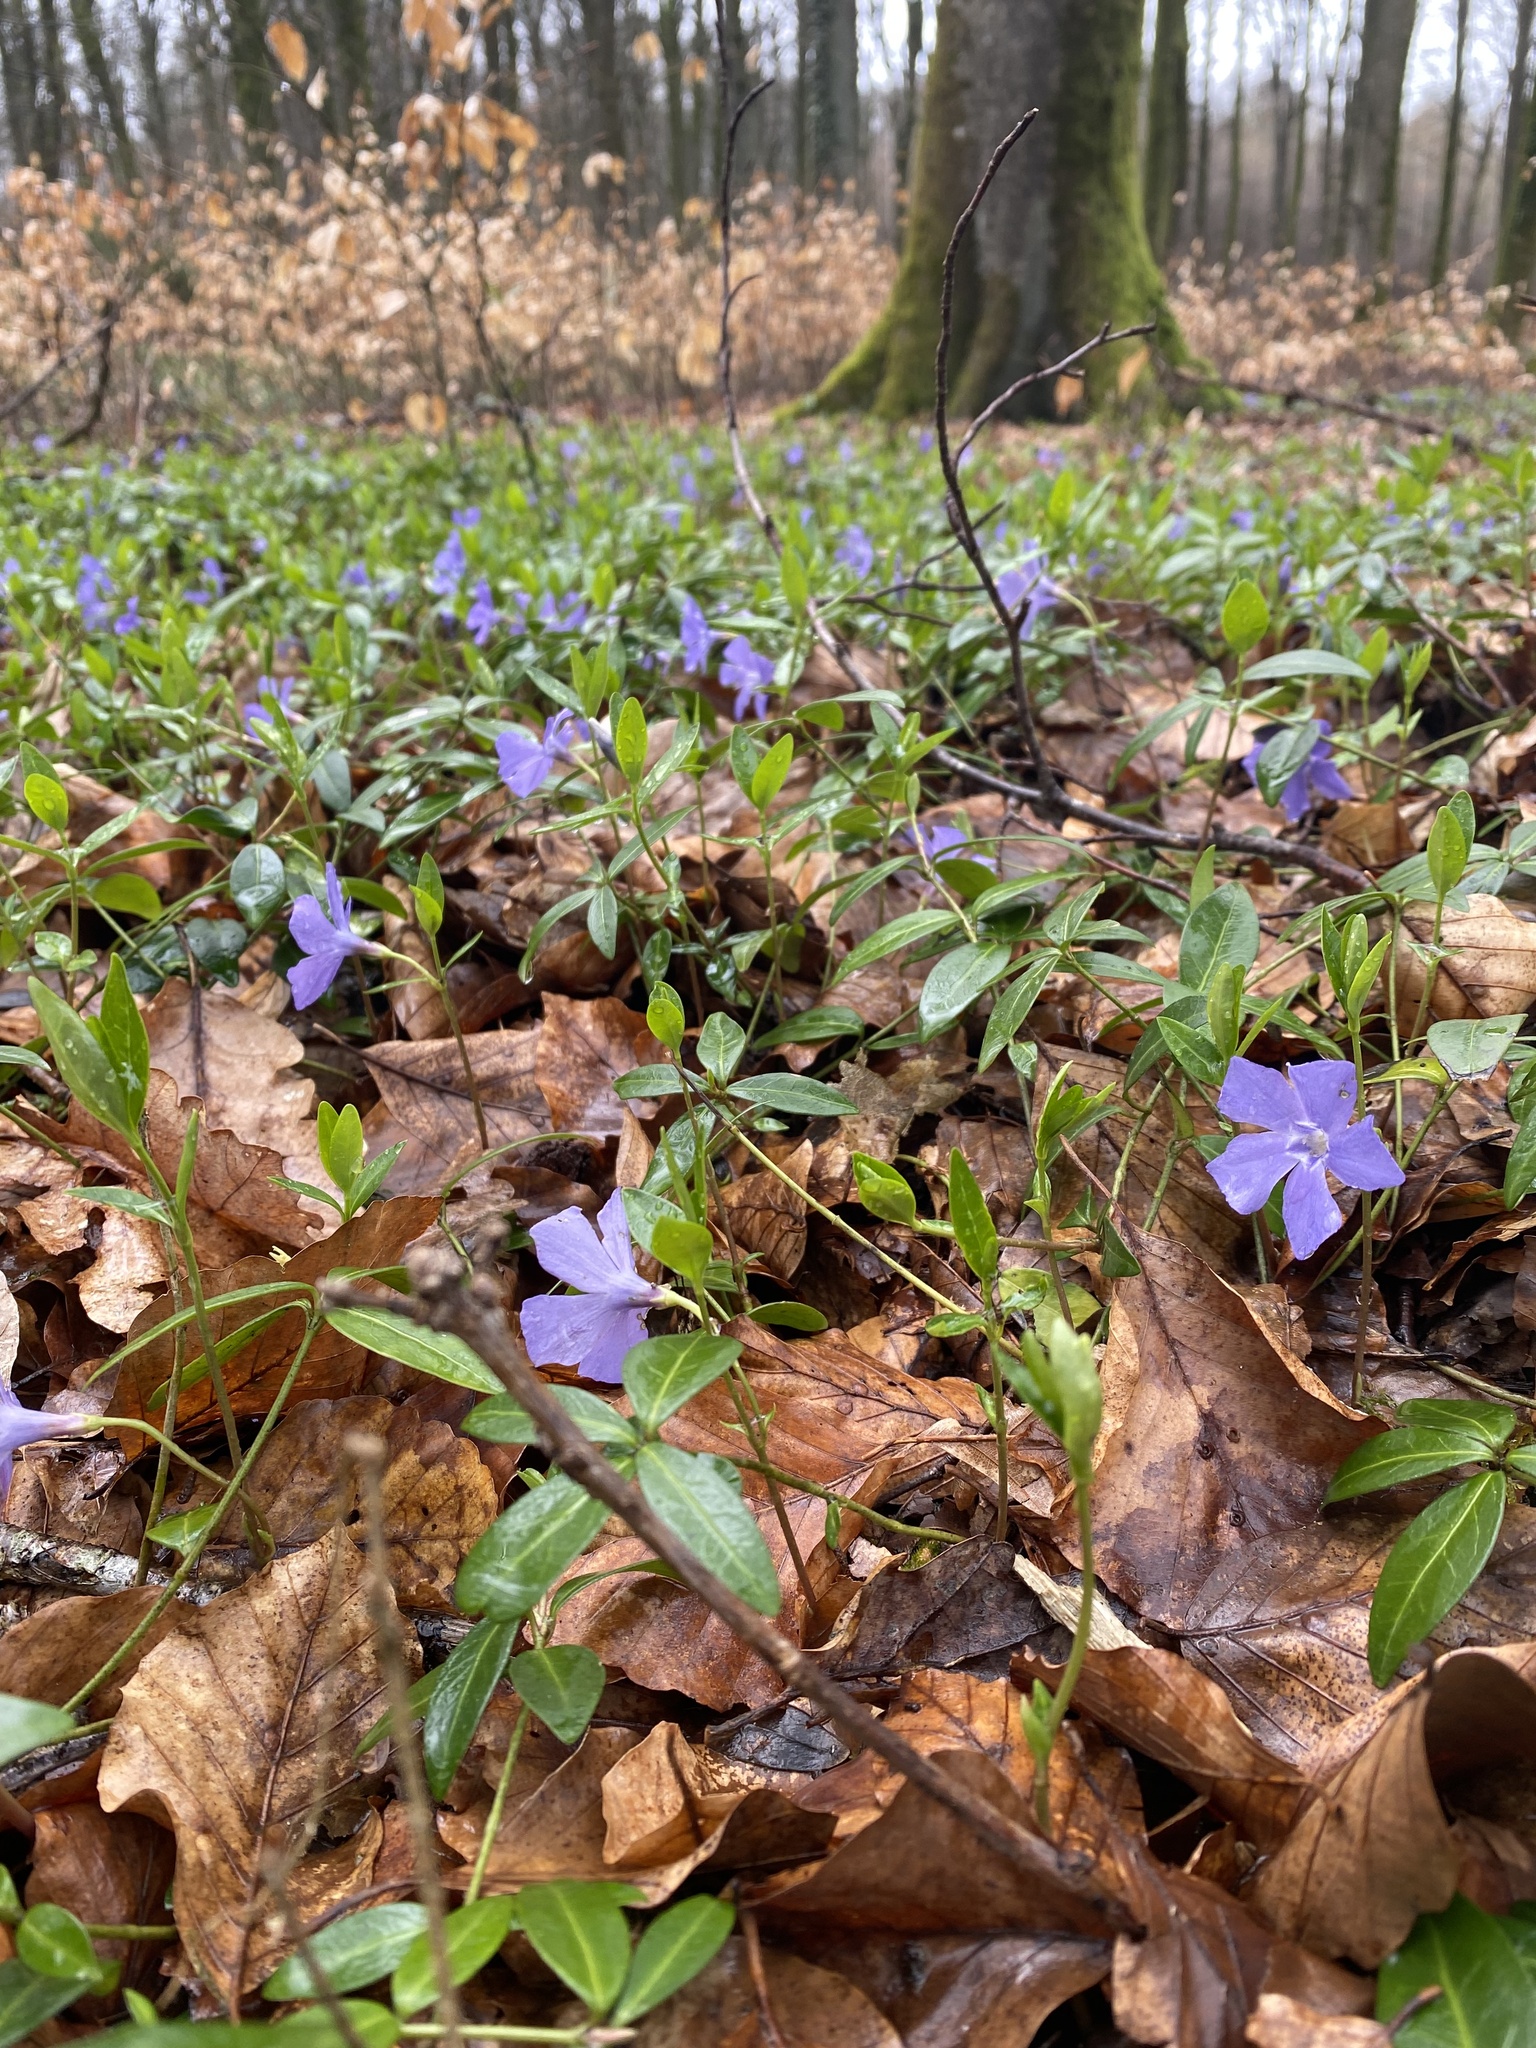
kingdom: Plantae
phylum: Tracheophyta
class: Magnoliopsida
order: Gentianales
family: Apocynaceae
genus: Vinca
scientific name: Vinca minor
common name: Lesser periwinkle
